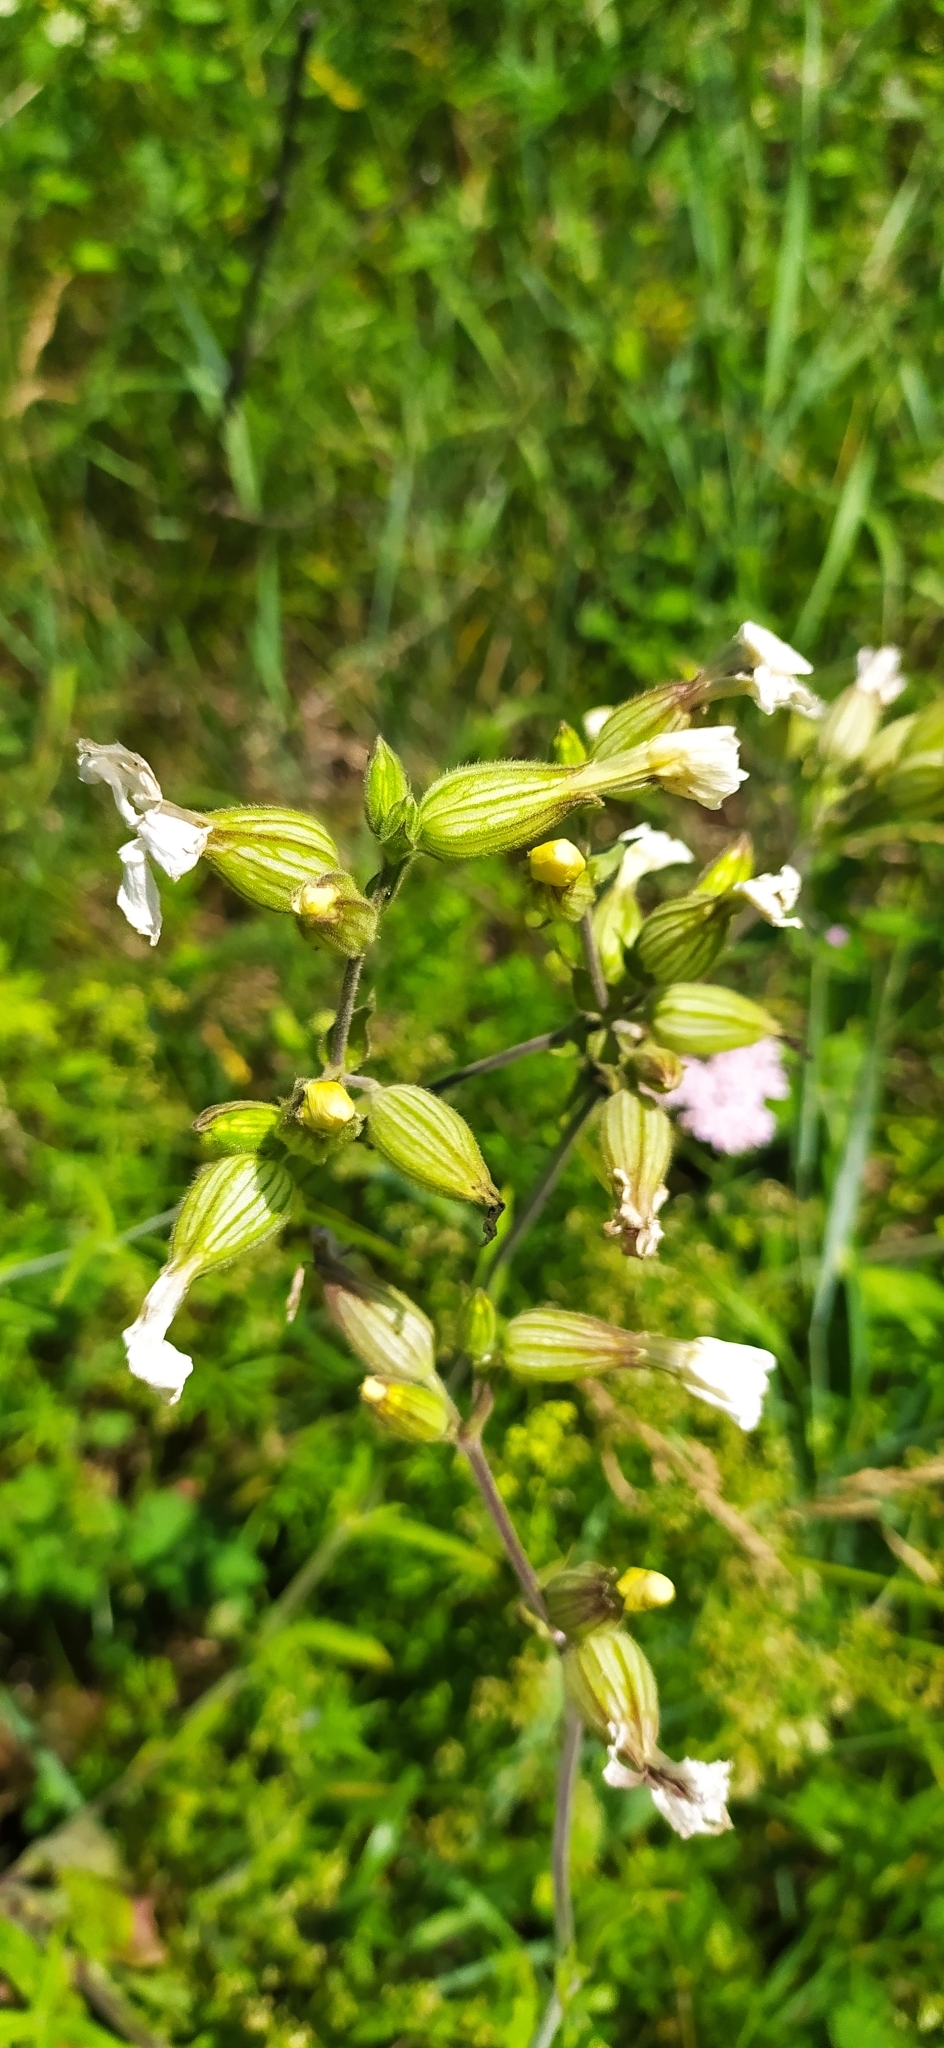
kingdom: Plantae
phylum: Tracheophyta
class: Magnoliopsida
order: Caryophyllales
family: Caryophyllaceae
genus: Silene
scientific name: Silene latifolia
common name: White campion
